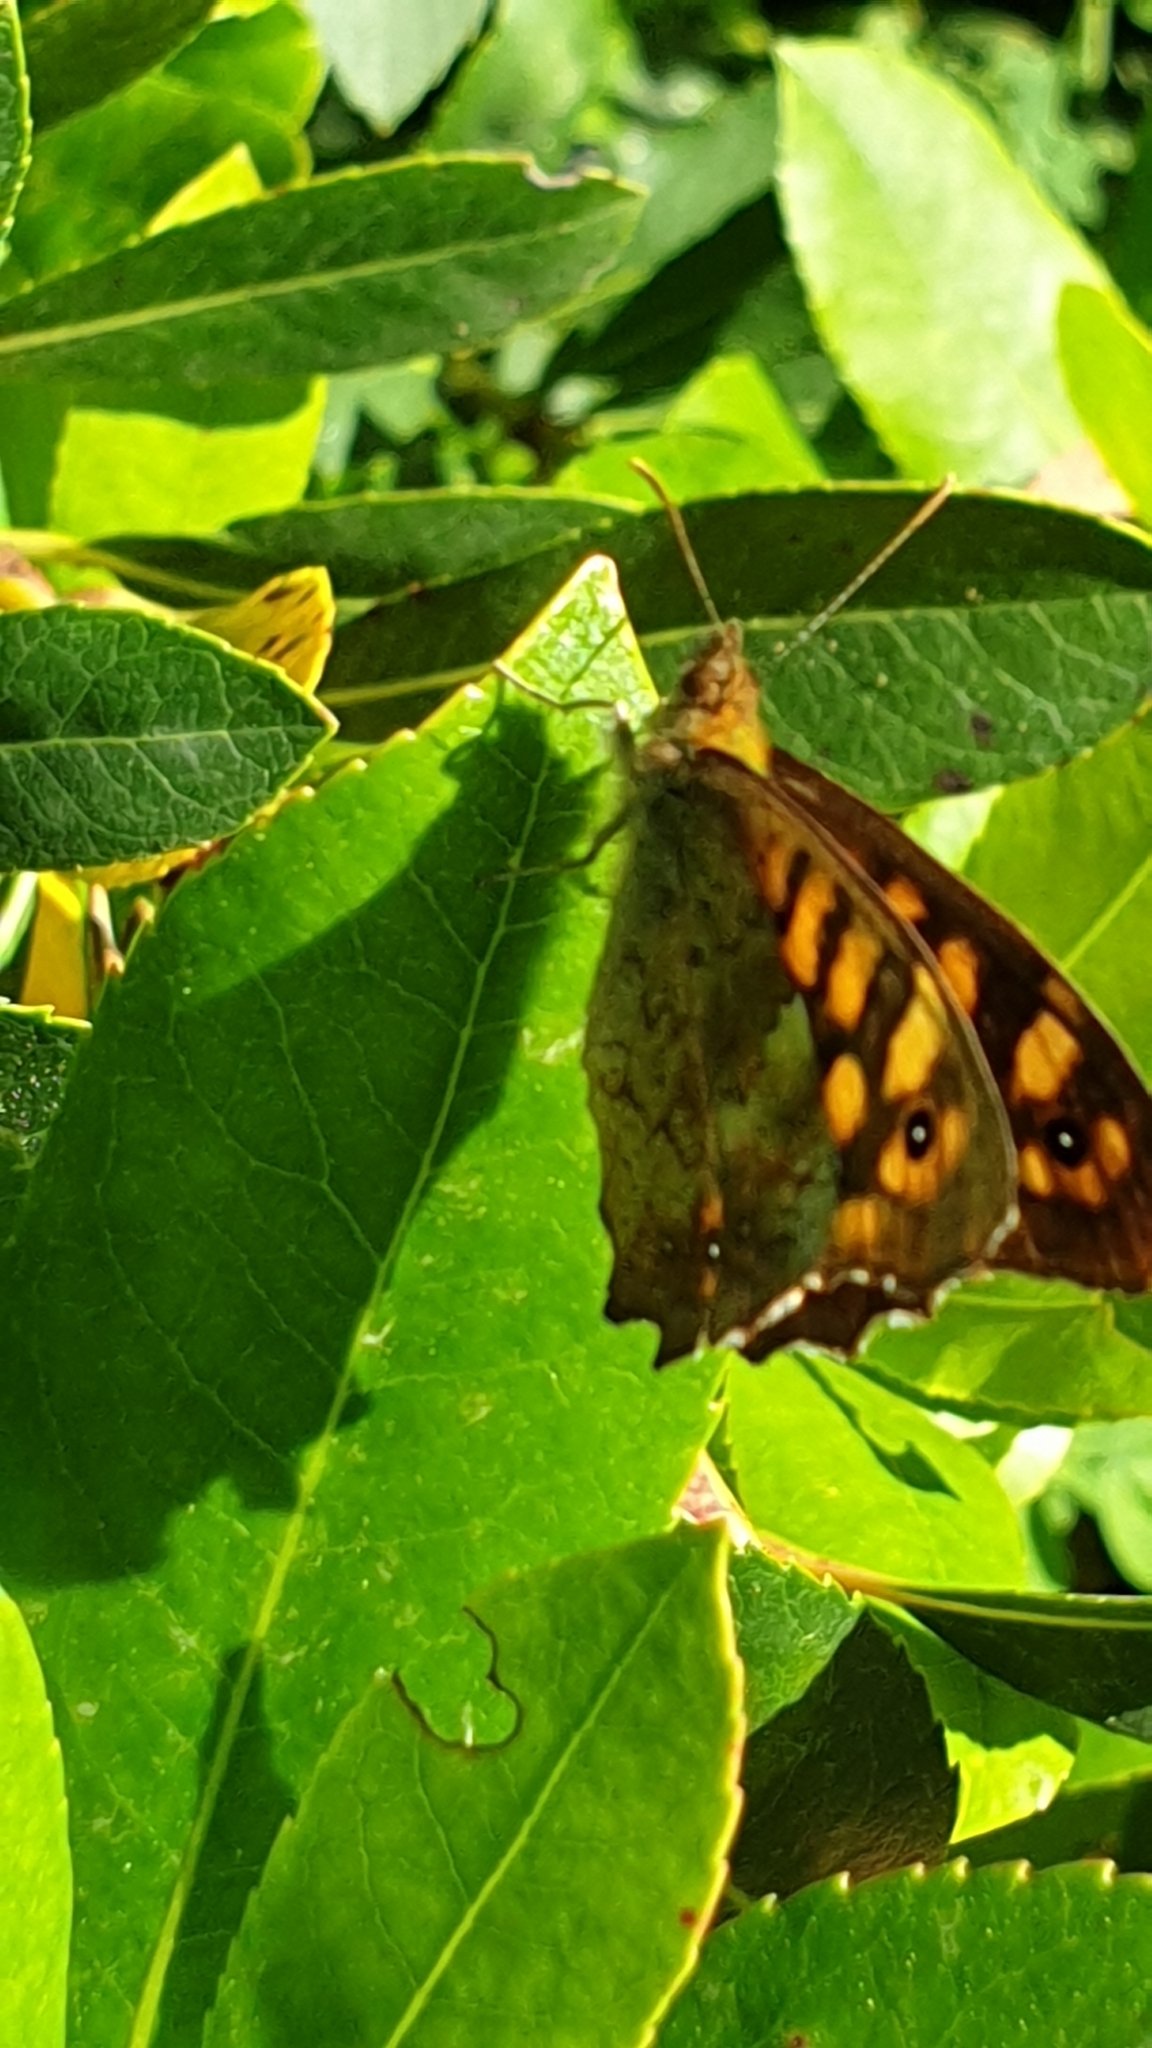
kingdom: Animalia
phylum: Arthropoda
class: Insecta
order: Lepidoptera
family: Nymphalidae
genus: Pararge
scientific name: Pararge aegeria
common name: Speckled wood
